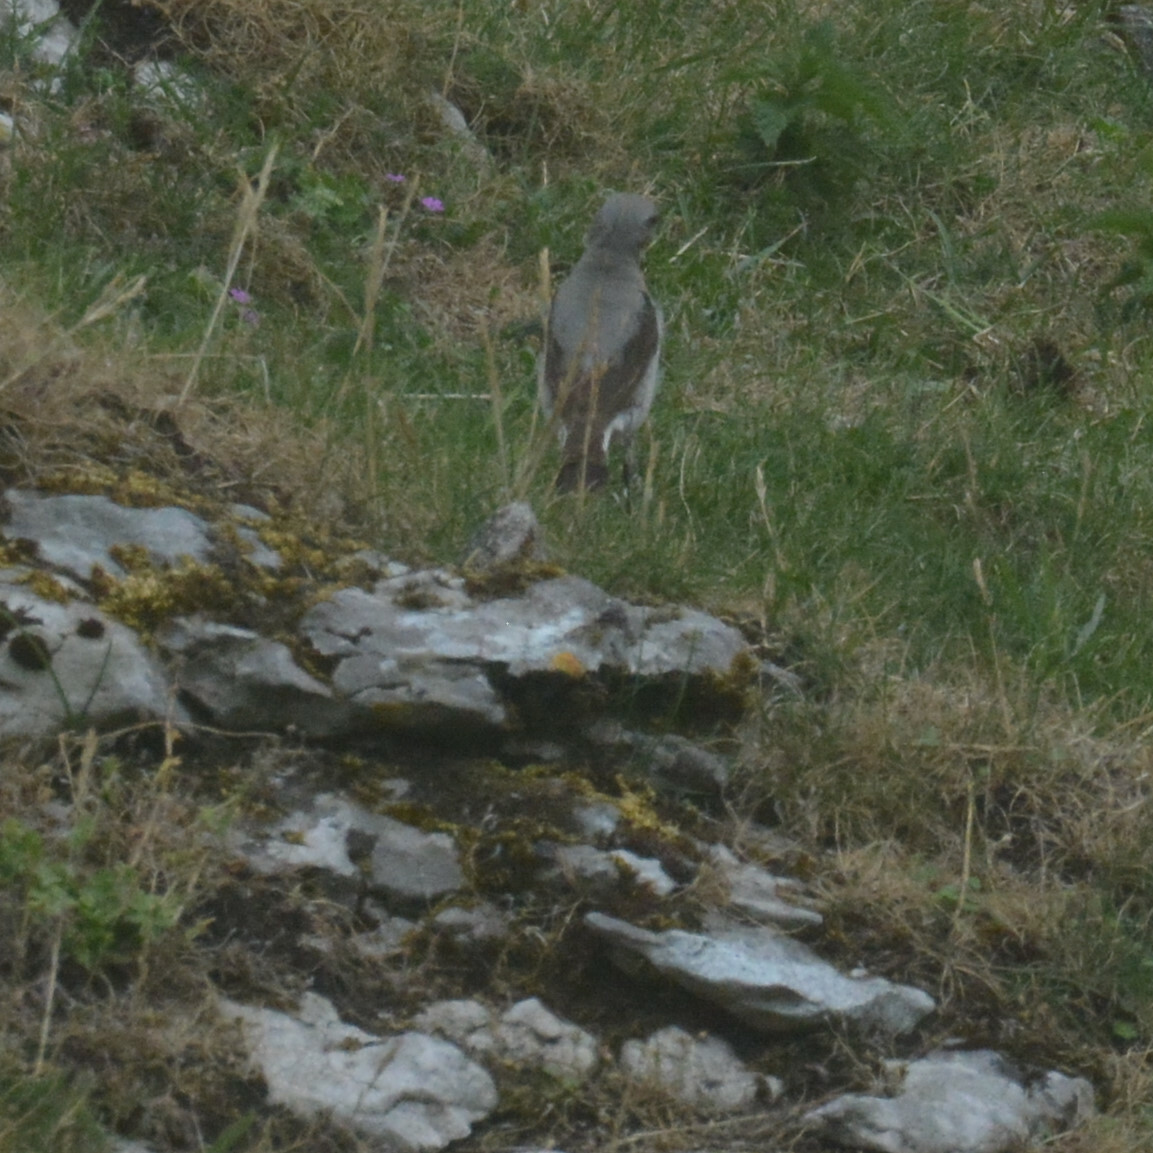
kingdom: Animalia
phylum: Chordata
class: Aves
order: Passeriformes
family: Muscicapidae
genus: Oenanthe
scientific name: Oenanthe oenanthe
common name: Northern wheatear
